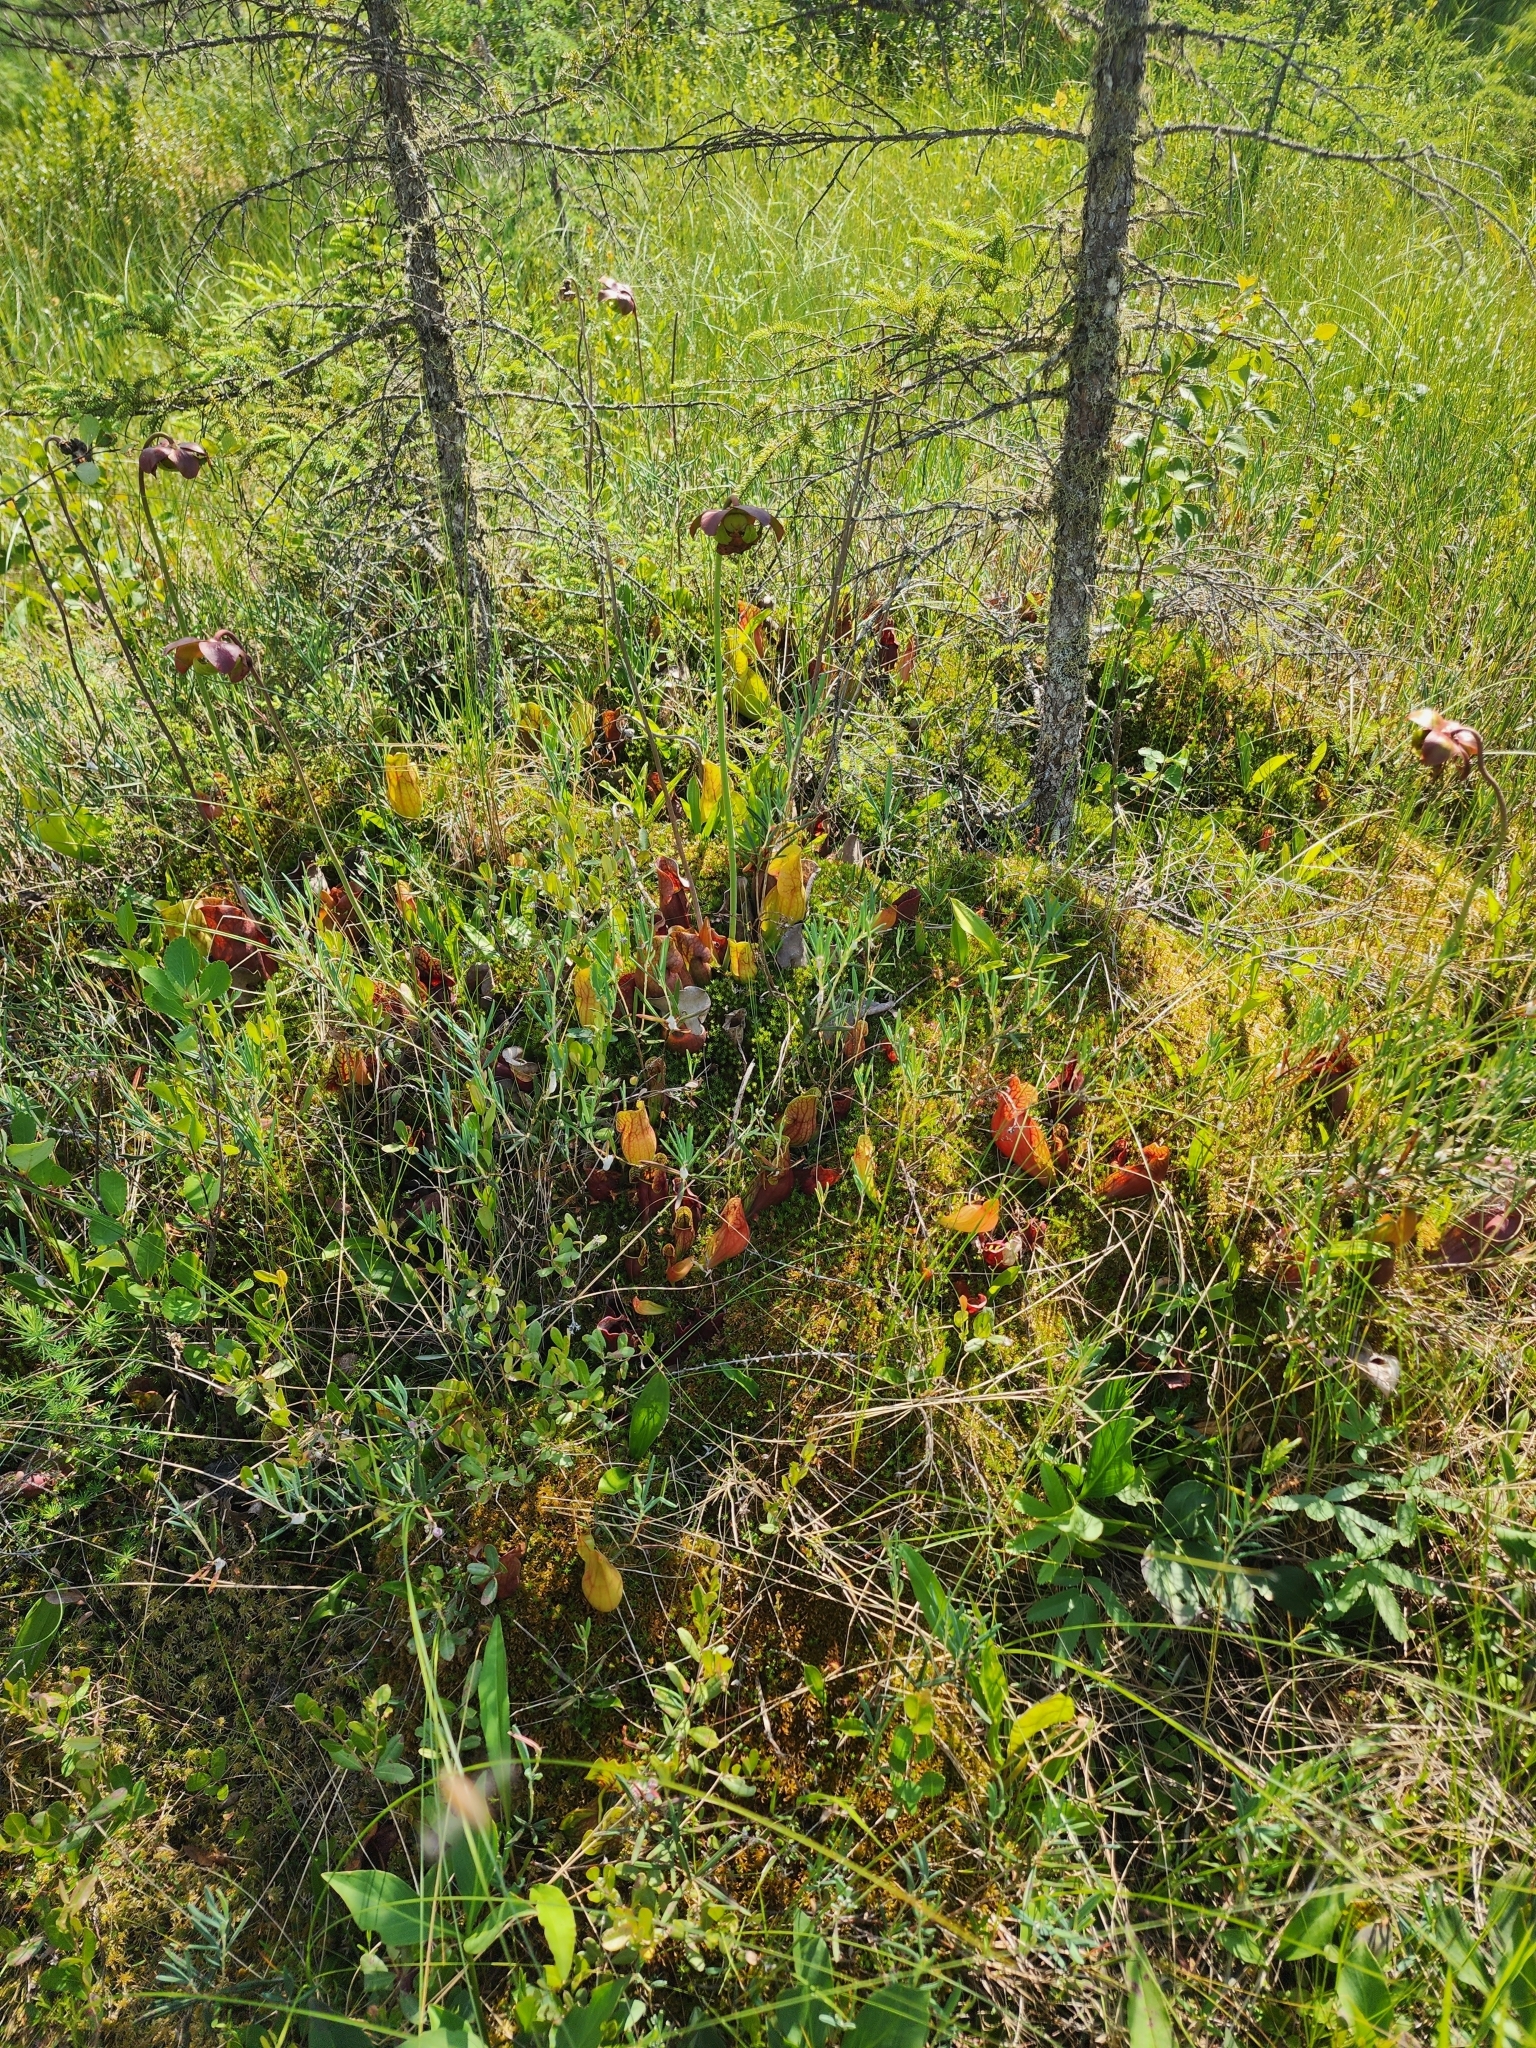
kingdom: Plantae
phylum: Tracheophyta
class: Magnoliopsida
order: Ericales
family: Sarraceniaceae
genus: Sarracenia
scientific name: Sarracenia purpurea
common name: Pitcherplant
